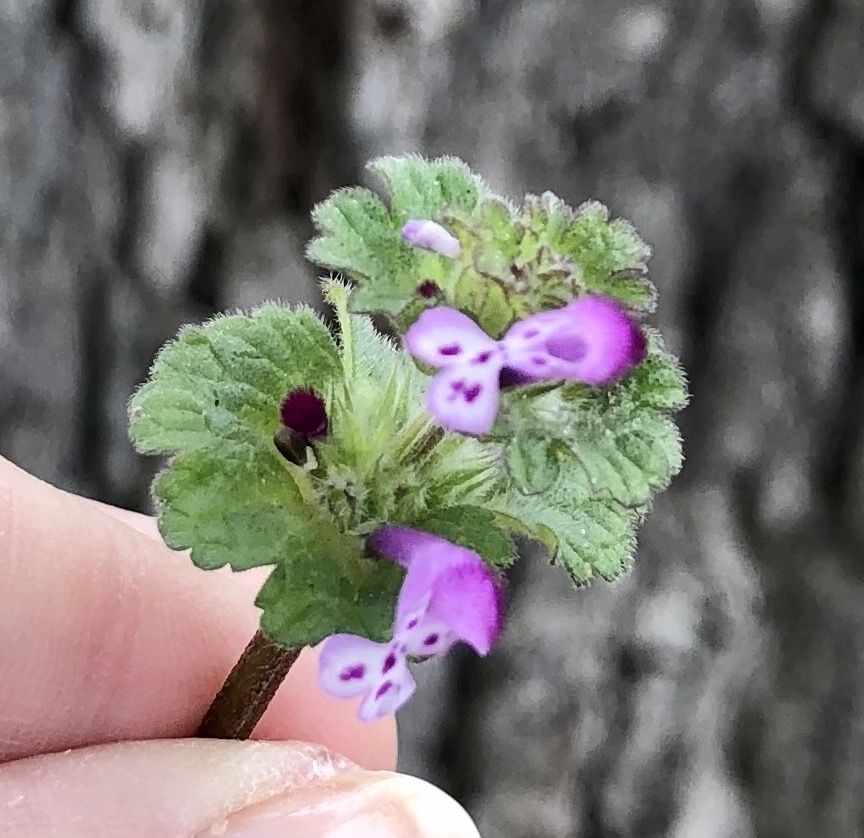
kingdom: Plantae
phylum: Tracheophyta
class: Magnoliopsida
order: Lamiales
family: Lamiaceae
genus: Lamium
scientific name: Lamium amplexicaule
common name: Henbit dead-nettle
